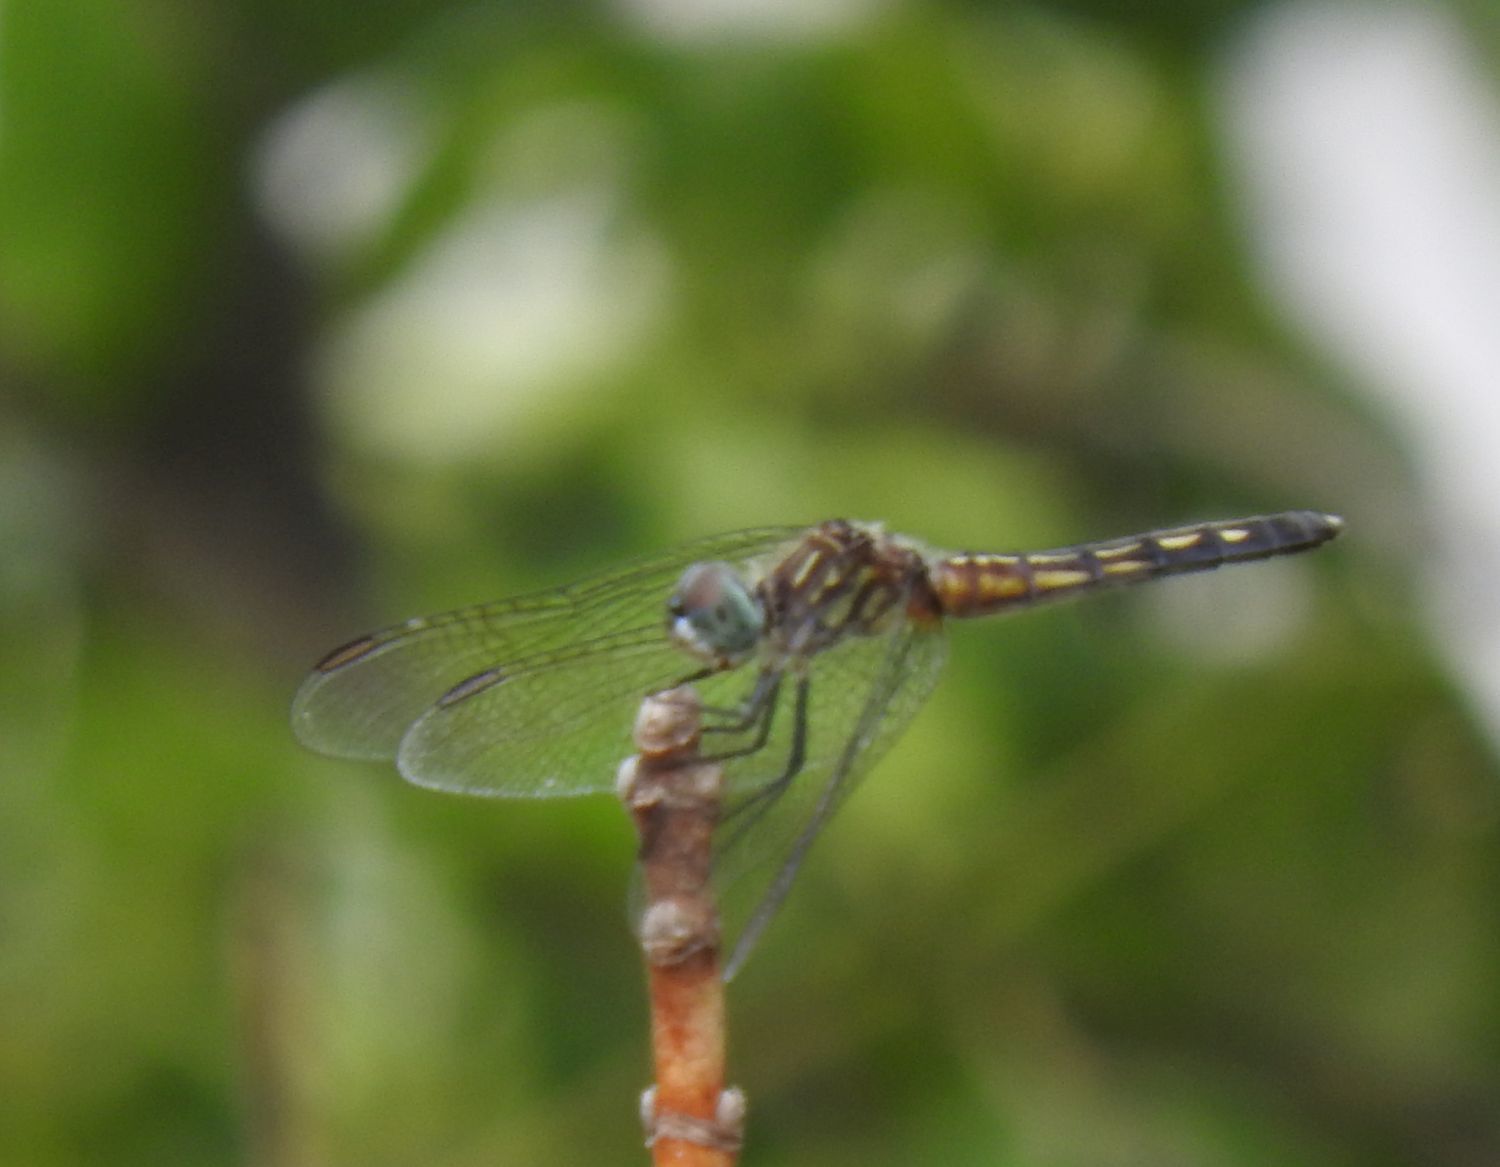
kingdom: Animalia
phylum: Arthropoda
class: Insecta
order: Odonata
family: Libellulidae
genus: Pachydiplax
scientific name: Pachydiplax longipennis
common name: Blue dasher
